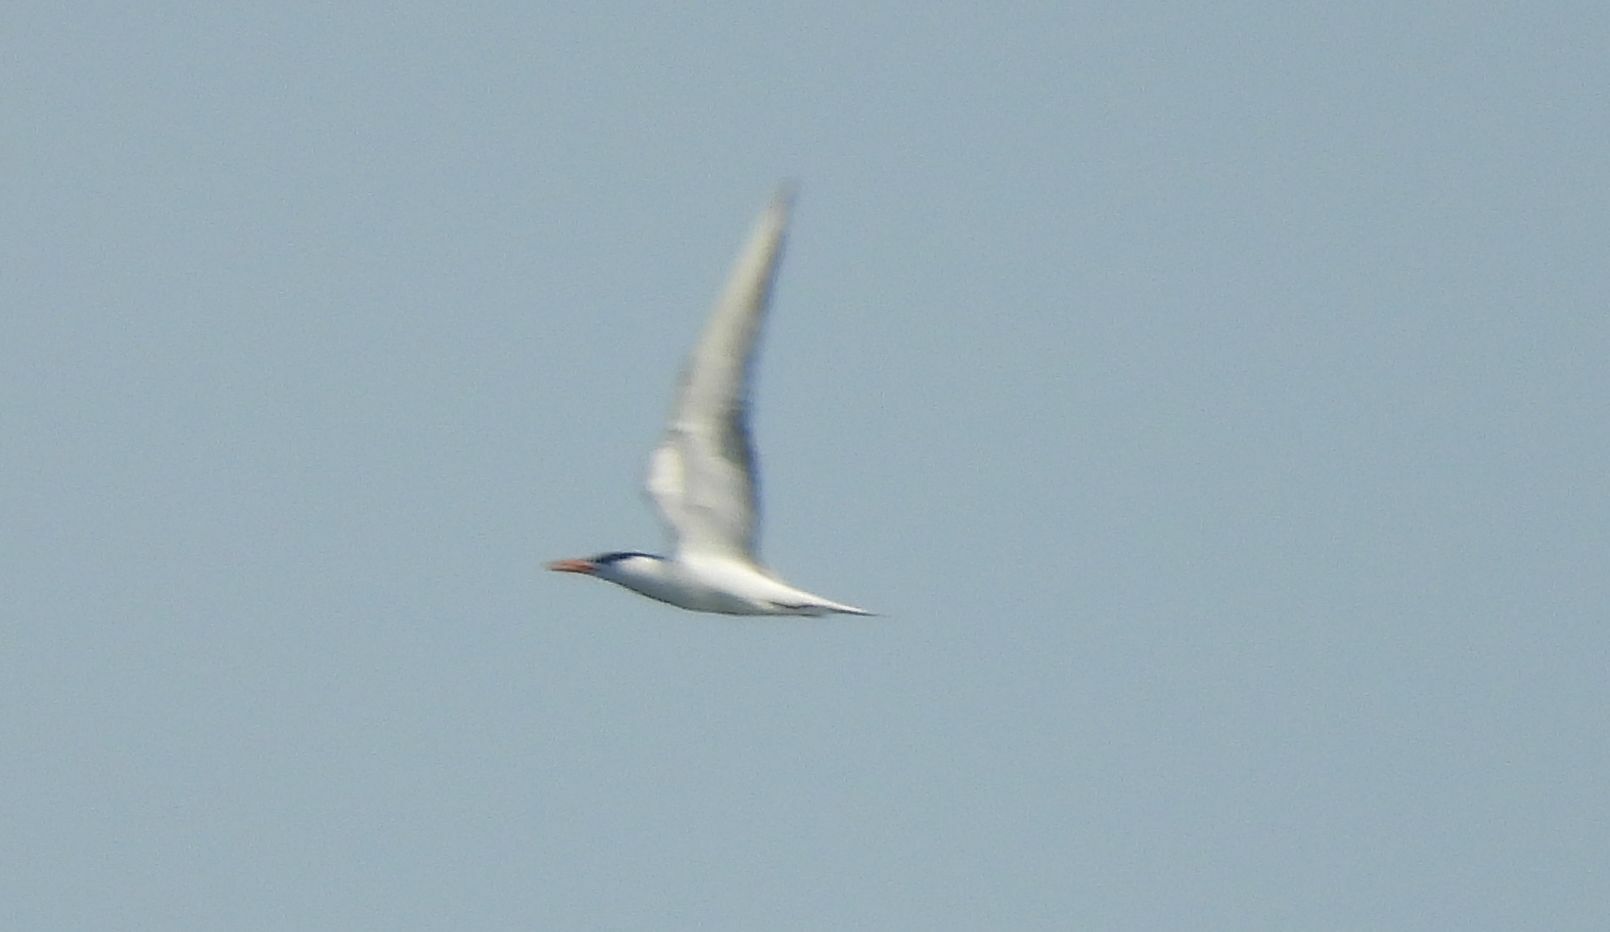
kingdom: Animalia
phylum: Chordata
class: Aves
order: Charadriiformes
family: Laridae
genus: Thalasseus
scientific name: Thalasseus maximus
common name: Royal tern
